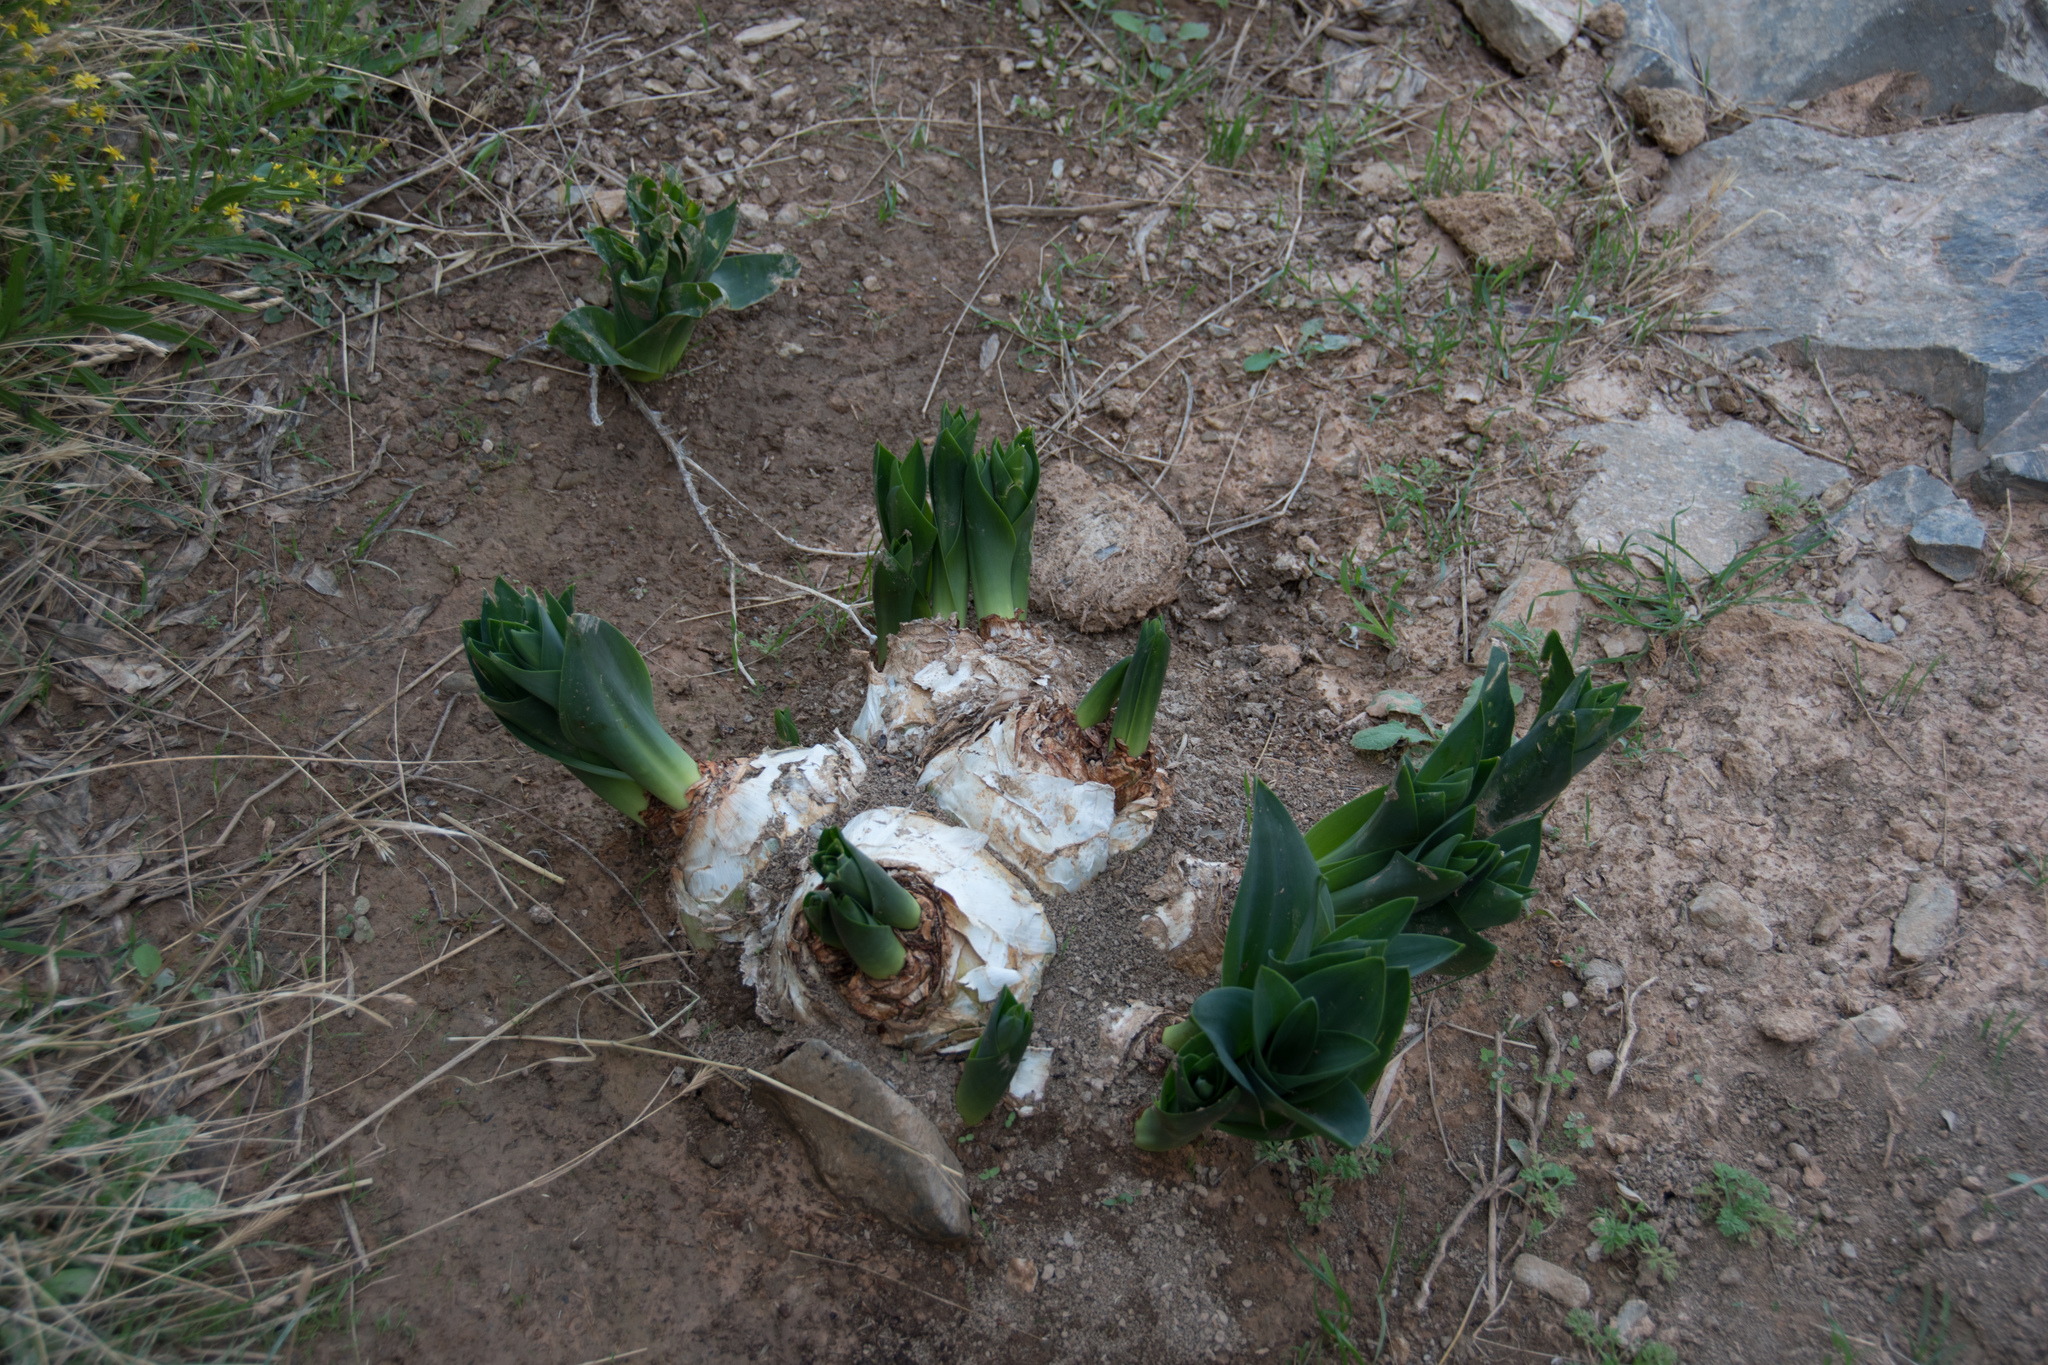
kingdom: Plantae
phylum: Tracheophyta
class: Liliopsida
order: Asparagales
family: Asparagaceae
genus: Drimia
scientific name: Drimia numidica
